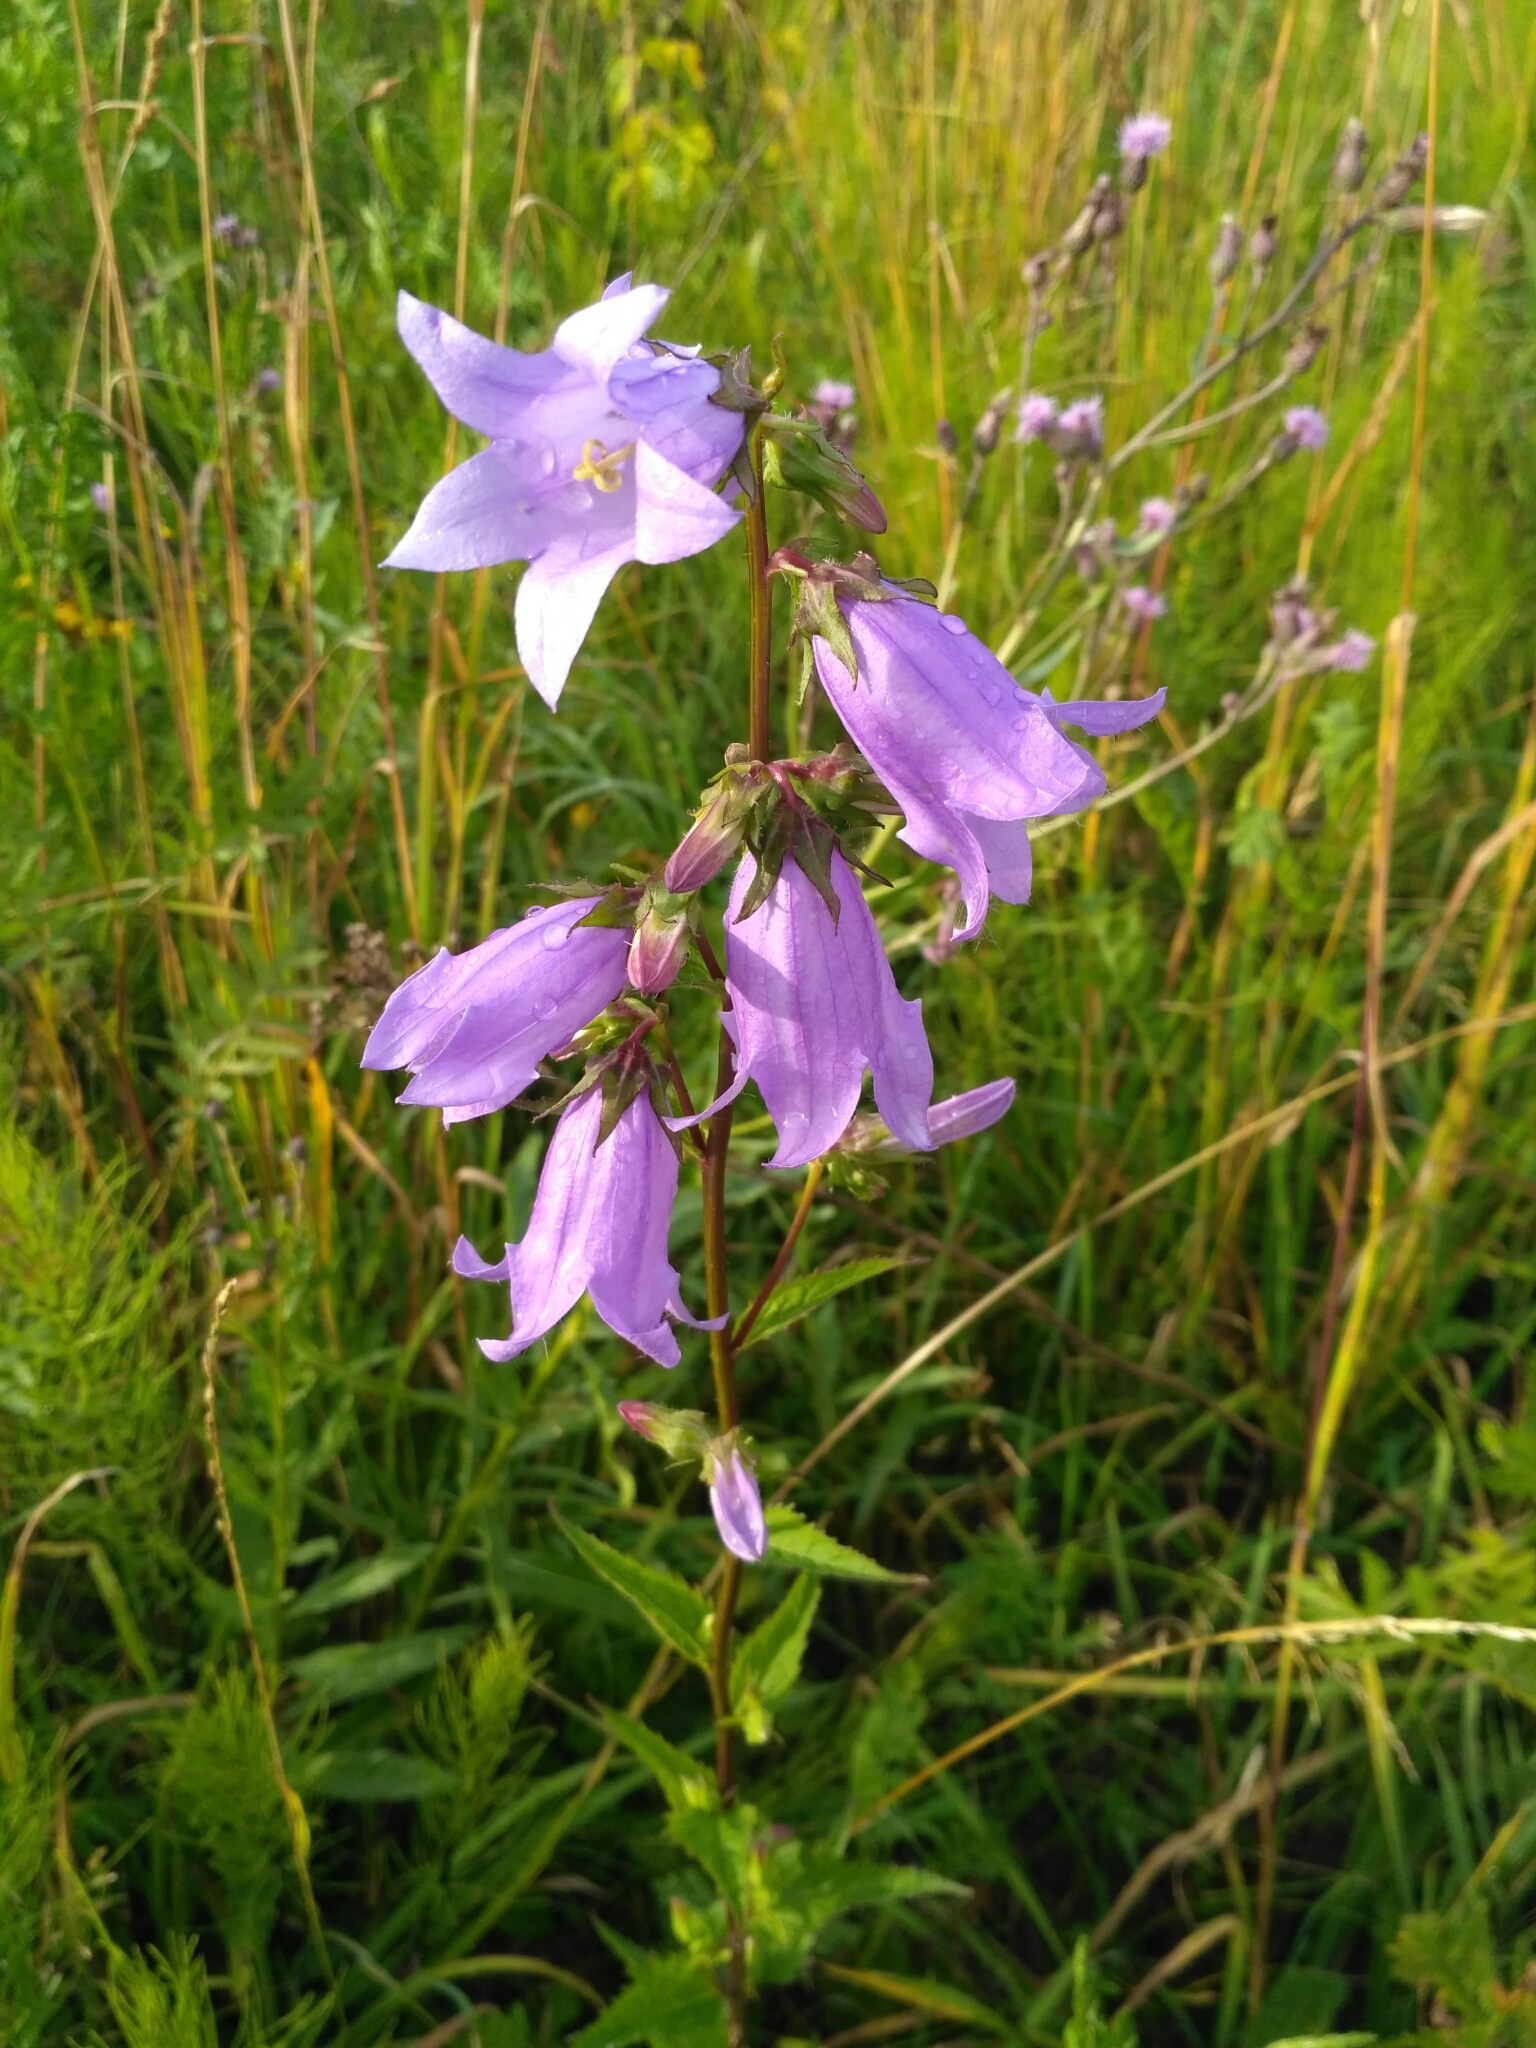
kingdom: Plantae
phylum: Tracheophyta
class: Magnoliopsida
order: Asterales
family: Campanulaceae
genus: Campanula
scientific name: Campanula trachelium
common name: Nettle-leaved bellflower
